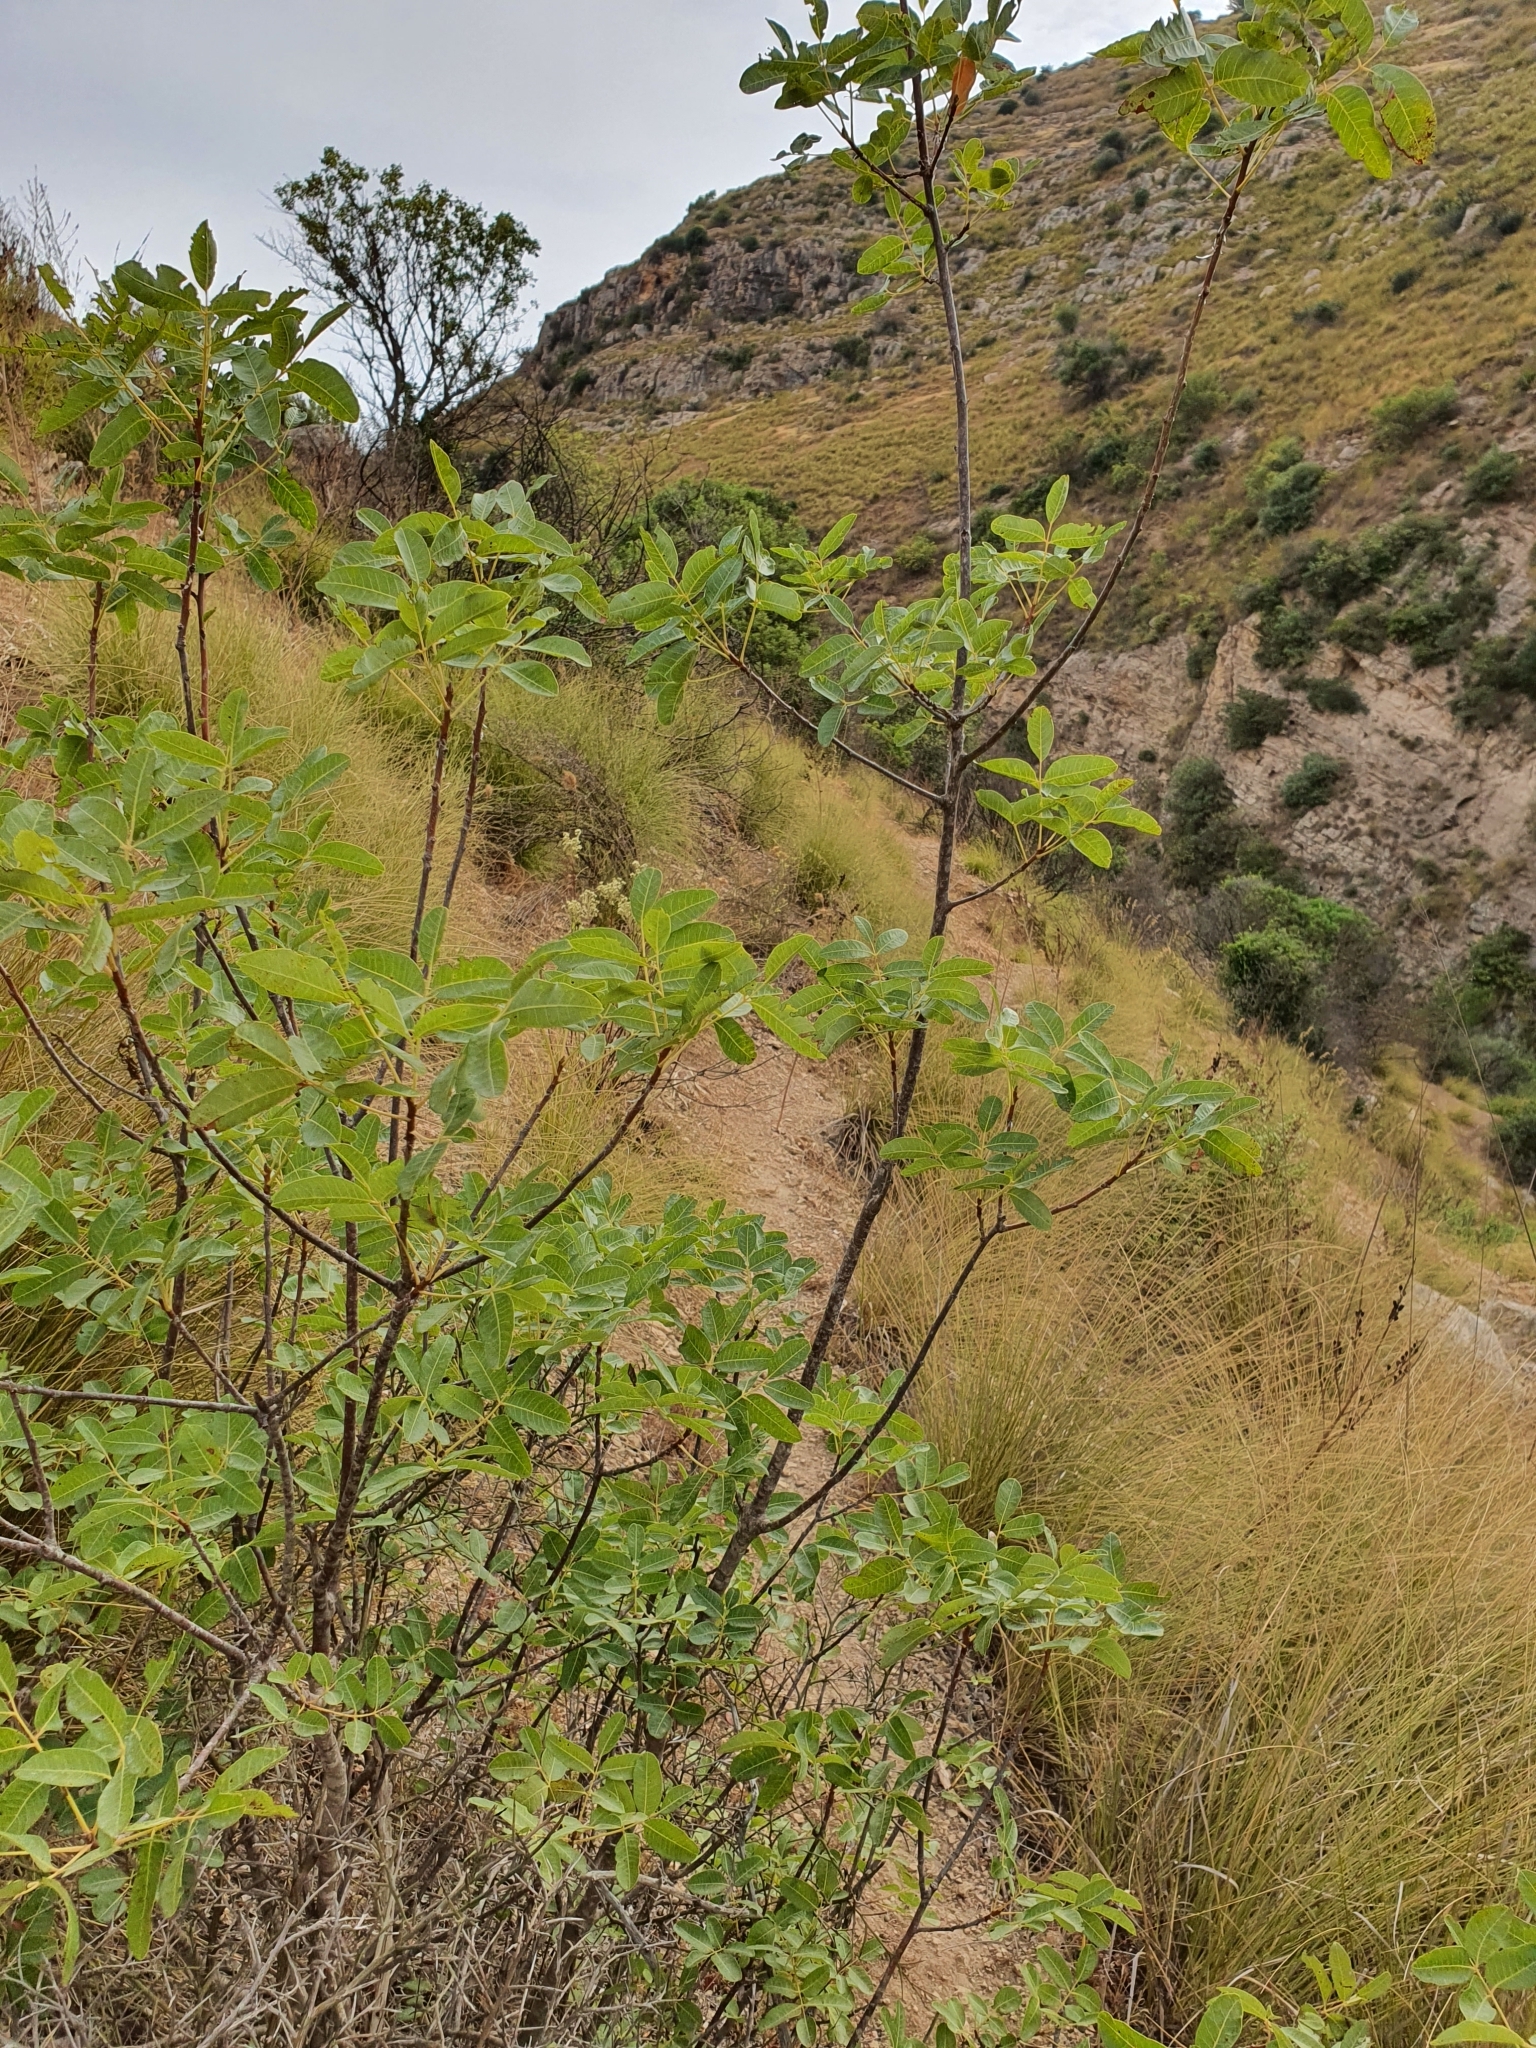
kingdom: Plantae
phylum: Tracheophyta
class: Magnoliopsida
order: Sapindales
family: Anacardiaceae
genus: Pistacia
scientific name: Pistacia terebinthus
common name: Terebinth
